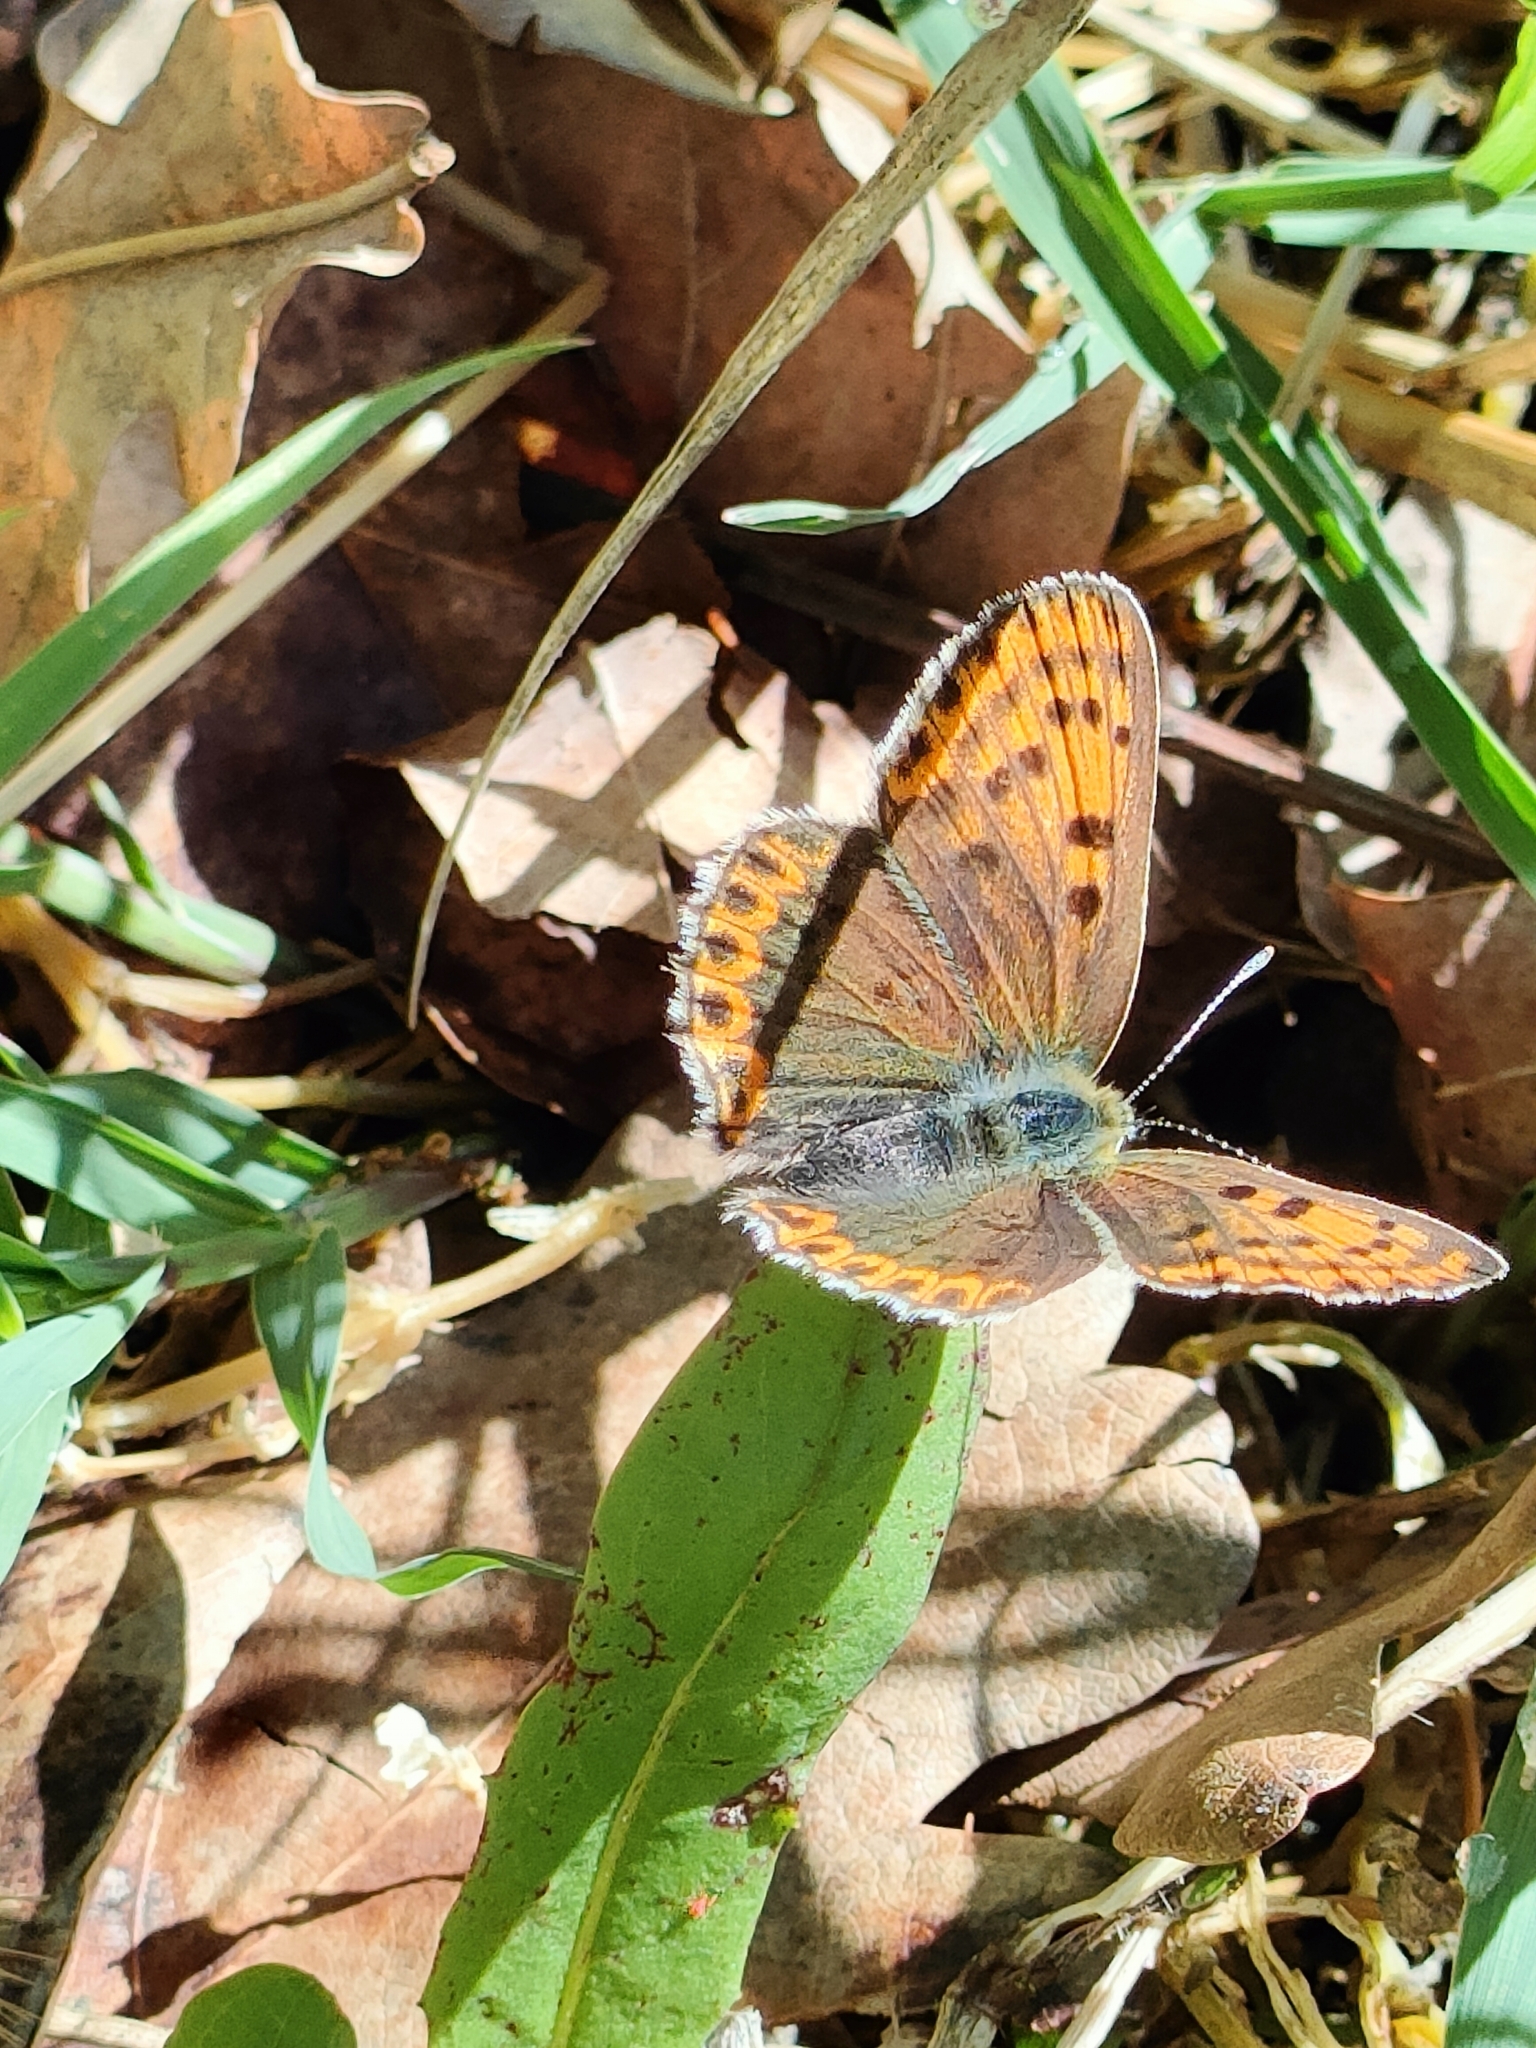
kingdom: Animalia
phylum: Arthropoda
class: Insecta
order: Lepidoptera
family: Lycaenidae
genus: Loweia
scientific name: Loweia tityrus
